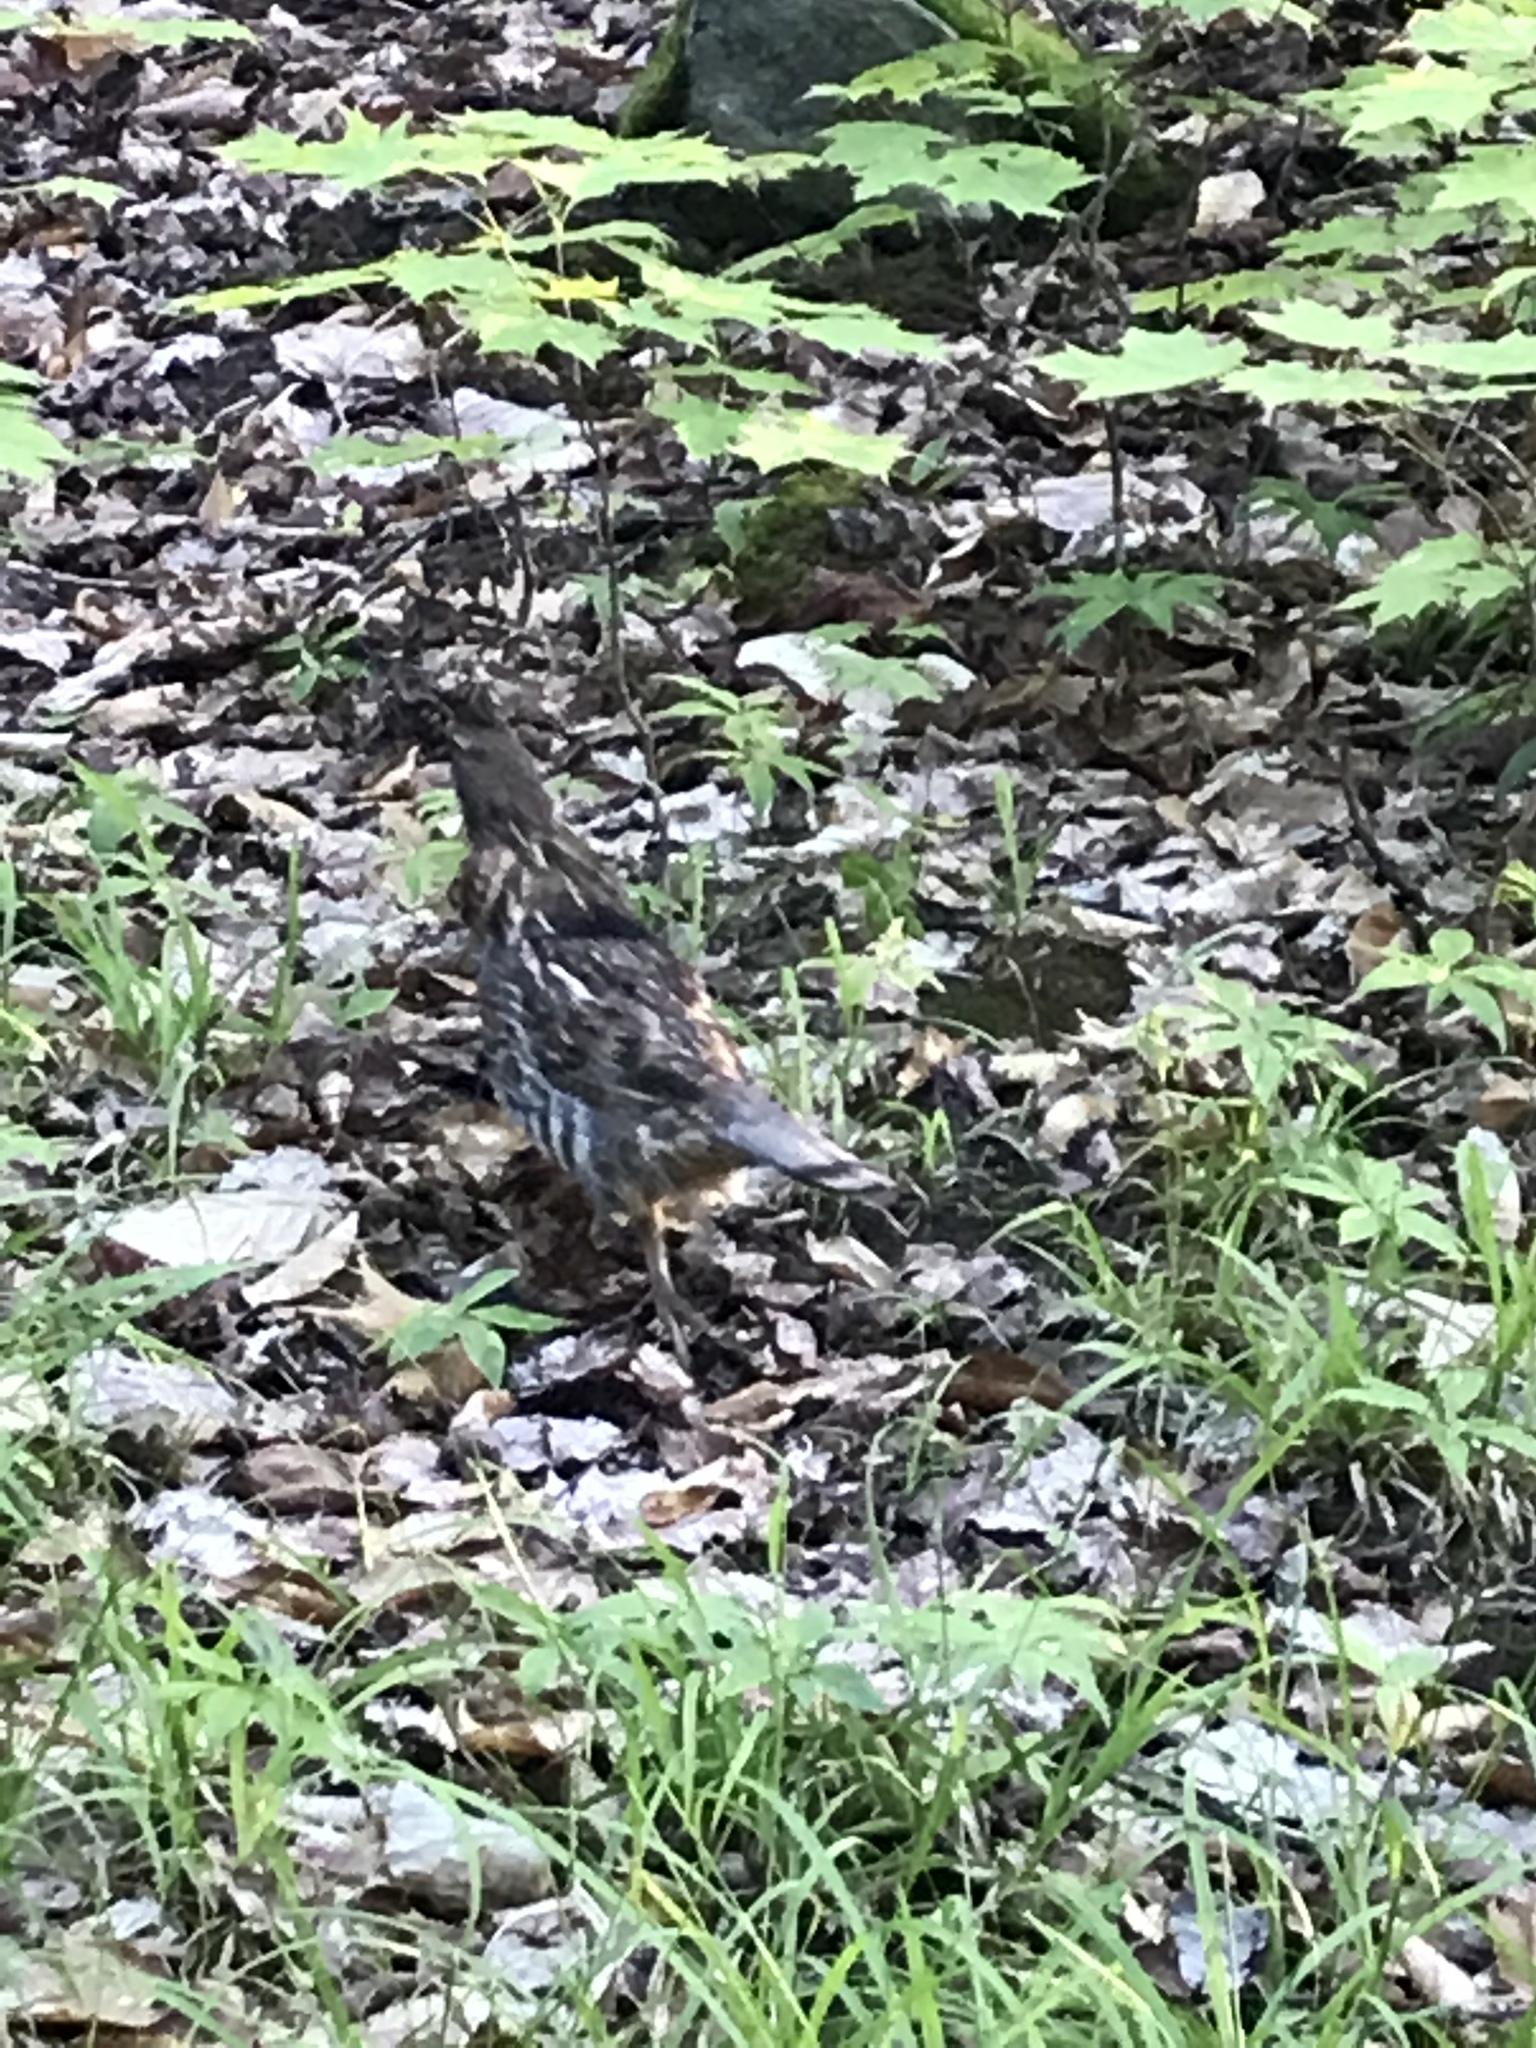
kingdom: Animalia
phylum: Chordata
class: Aves
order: Galliformes
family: Phasianidae
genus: Bonasa
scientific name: Bonasa umbellus
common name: Ruffed grouse
